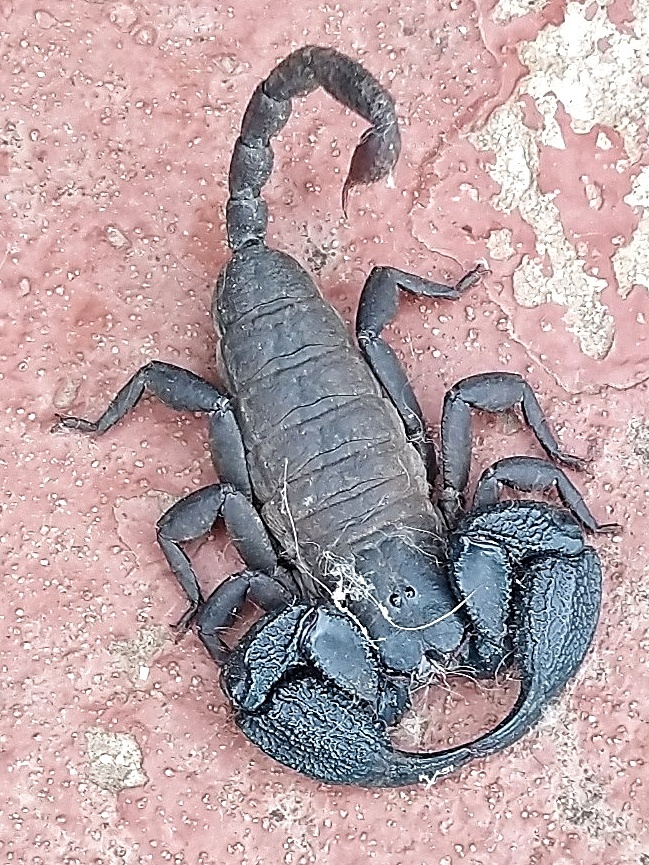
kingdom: Animalia
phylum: Arthropoda
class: Arachnida
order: Scorpiones
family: Hormuridae
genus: Opisthacanthus
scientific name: Opisthacanthus capensis
